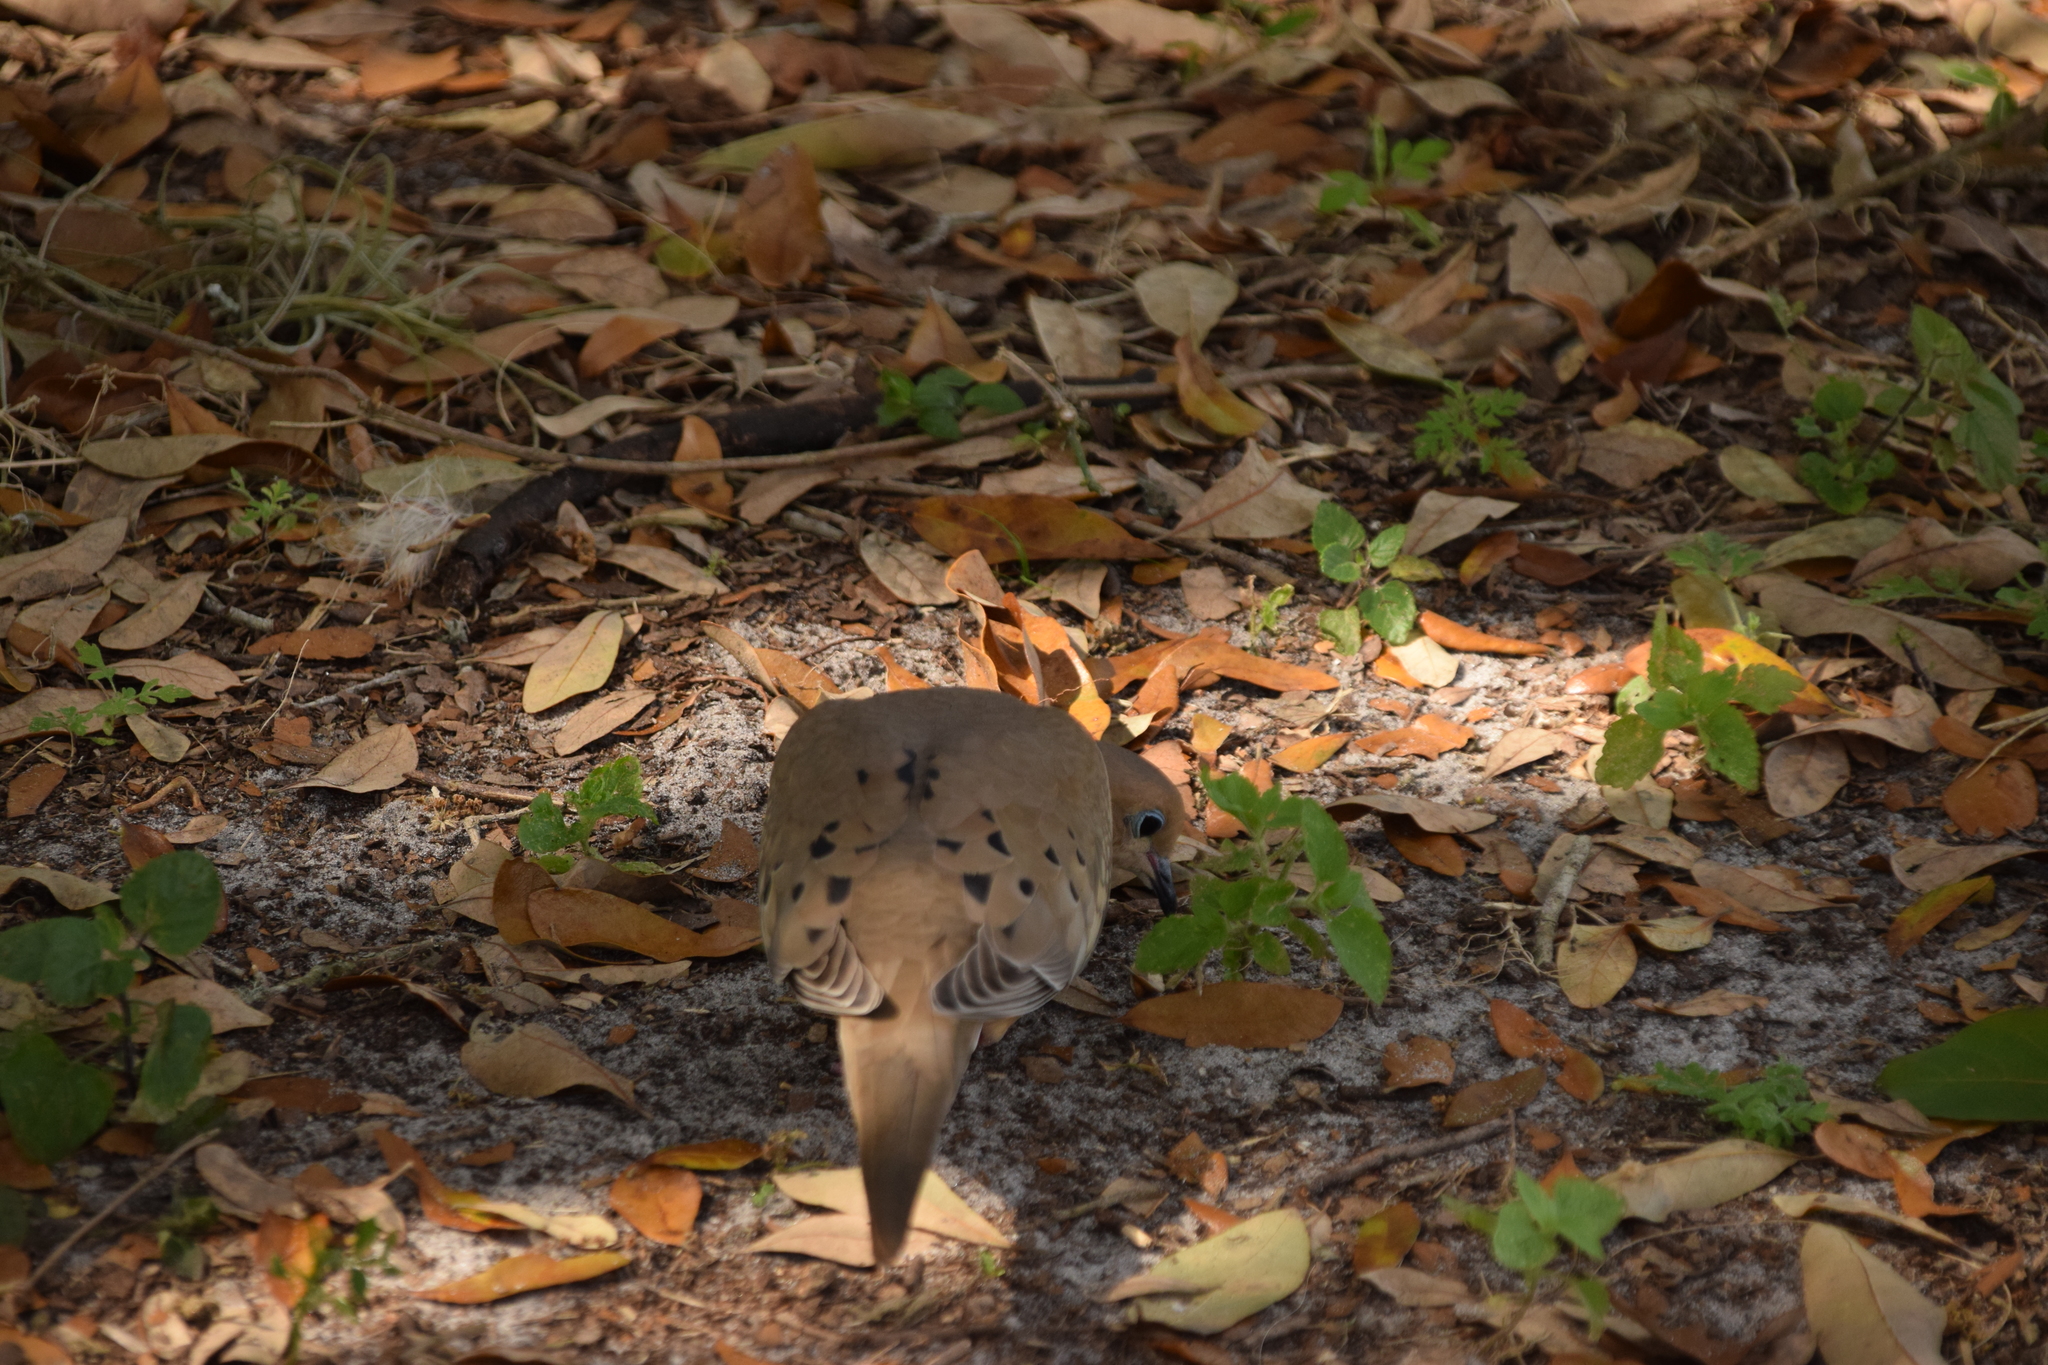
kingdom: Animalia
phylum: Chordata
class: Aves
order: Columbiformes
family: Columbidae
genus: Zenaida
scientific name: Zenaida macroura
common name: Mourning dove
